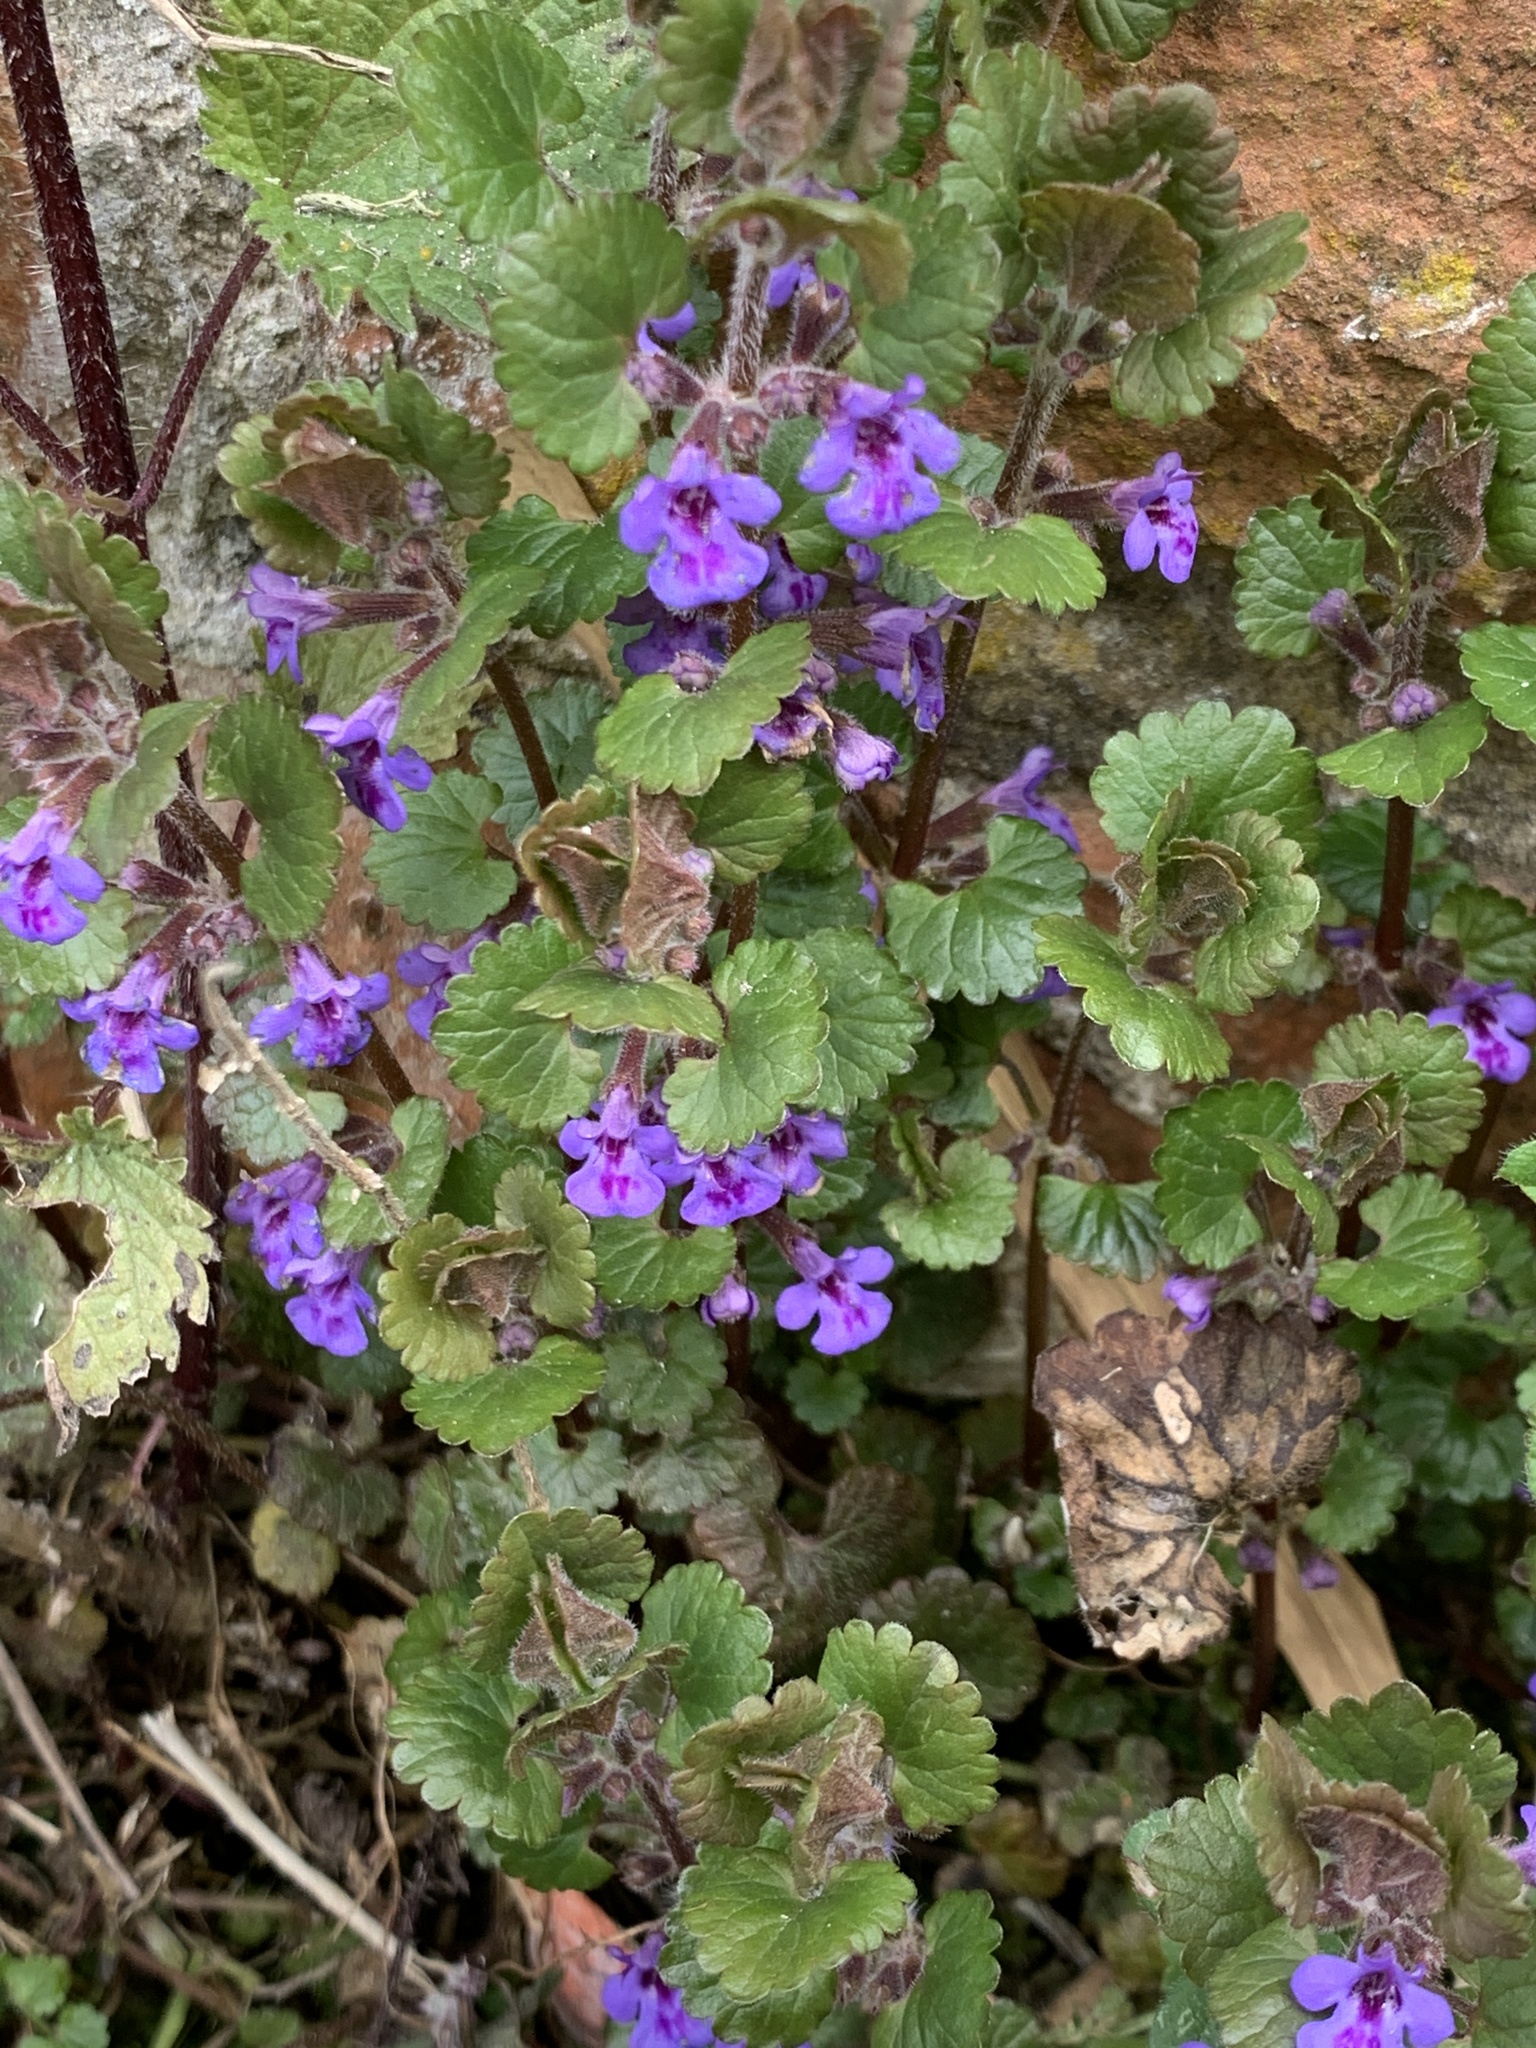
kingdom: Plantae
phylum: Tracheophyta
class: Magnoliopsida
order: Lamiales
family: Lamiaceae
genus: Glechoma
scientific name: Glechoma hederacea
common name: Ground ivy
